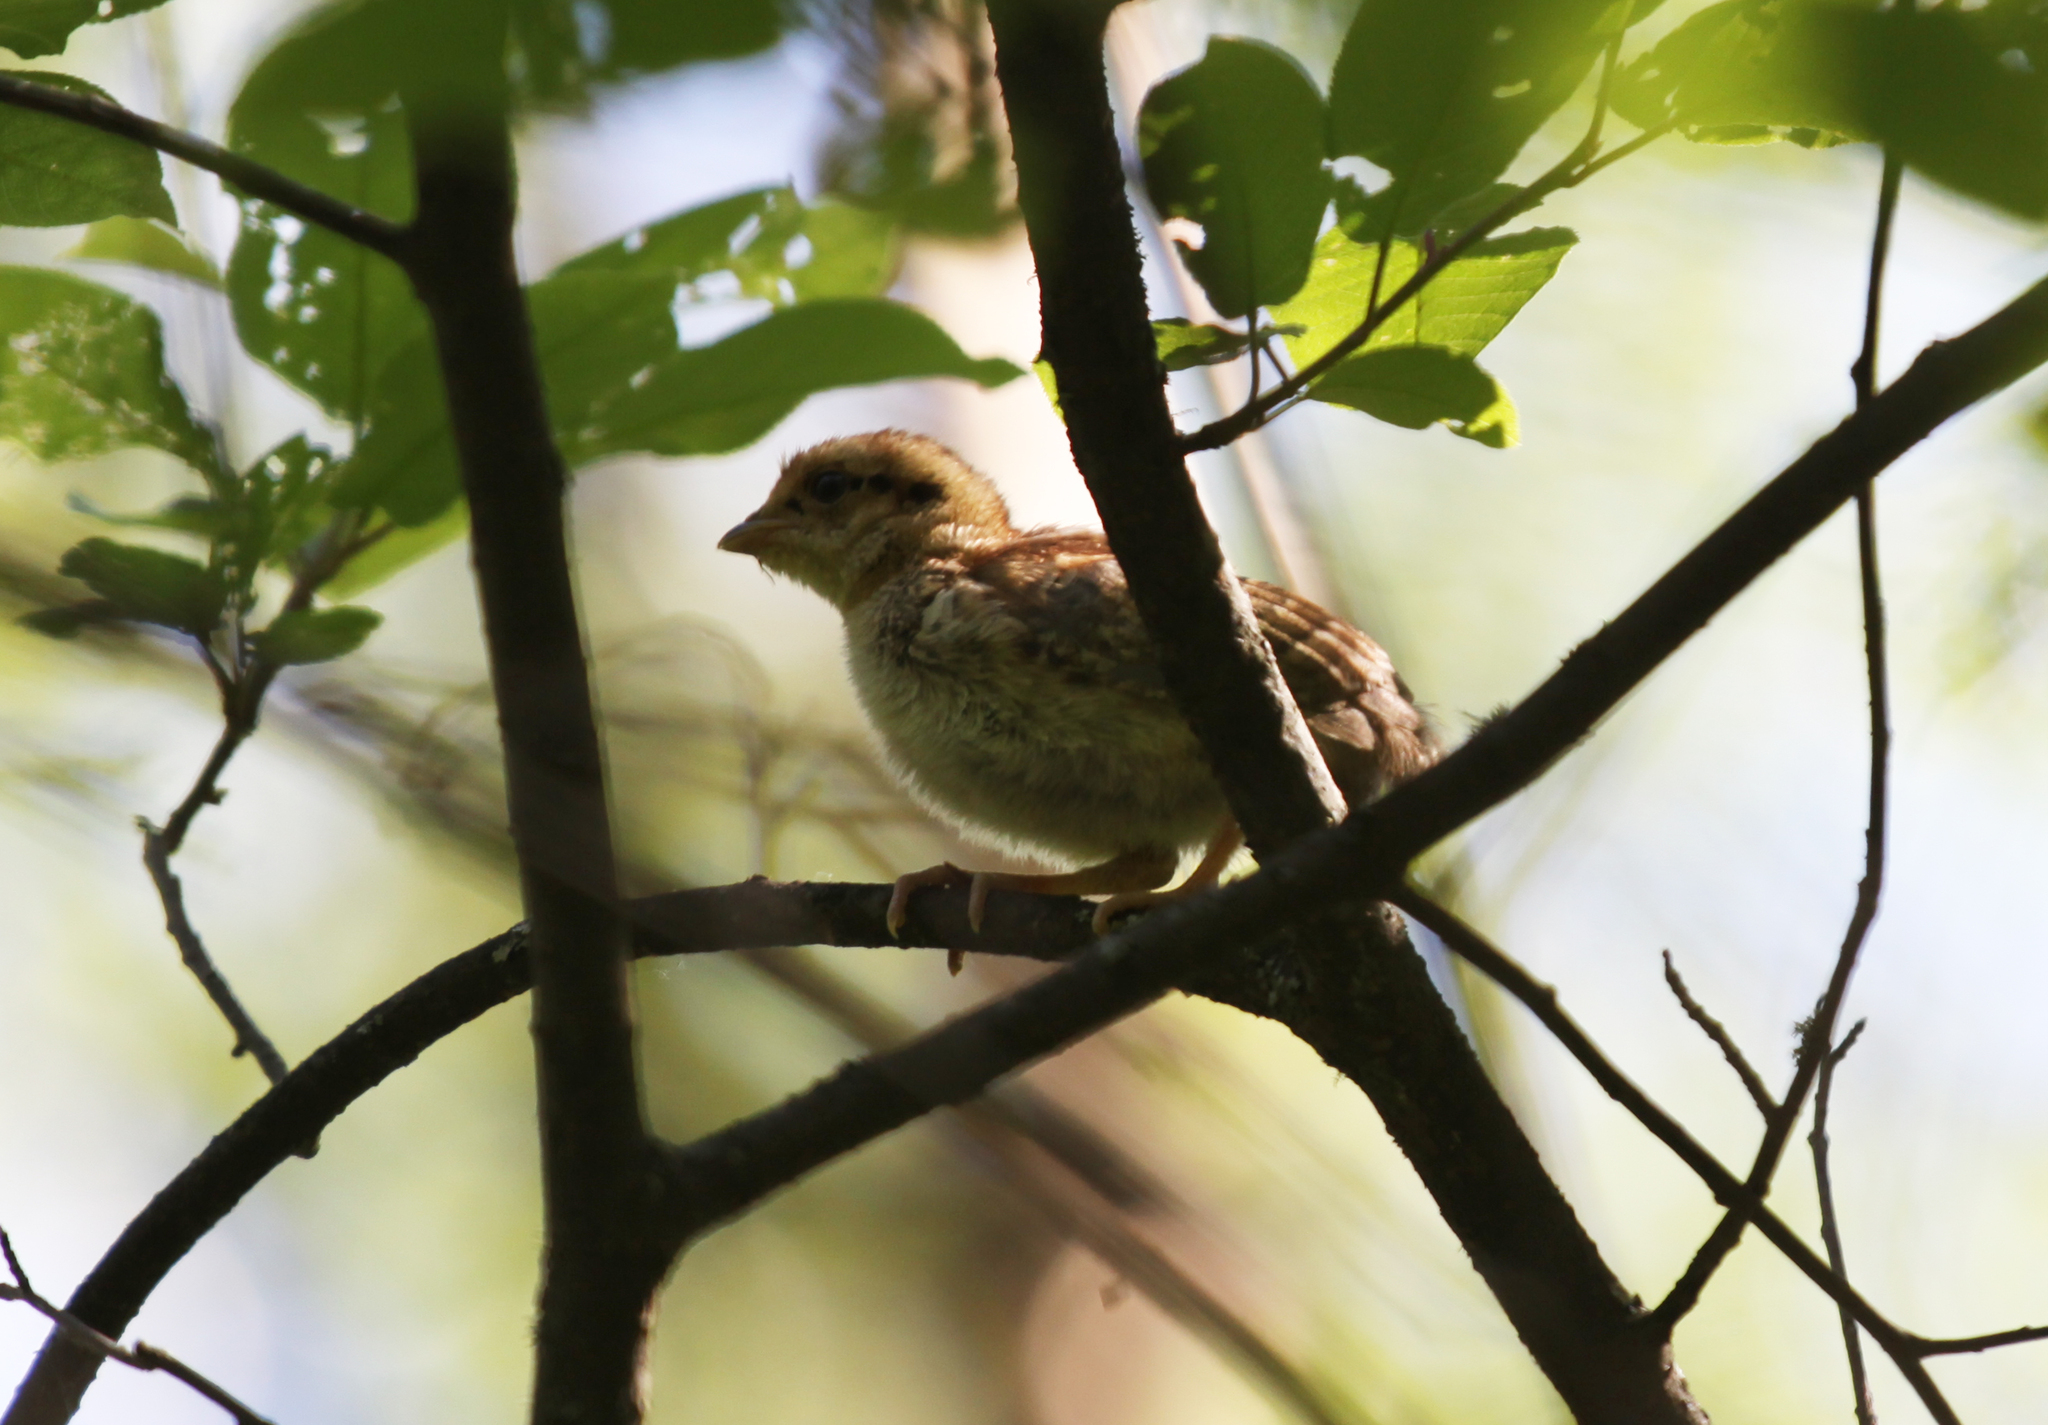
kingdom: Animalia
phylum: Chordata
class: Aves
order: Galliformes
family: Phasianidae
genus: Tetrastes
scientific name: Tetrastes bonasia
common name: Hazel grouse
